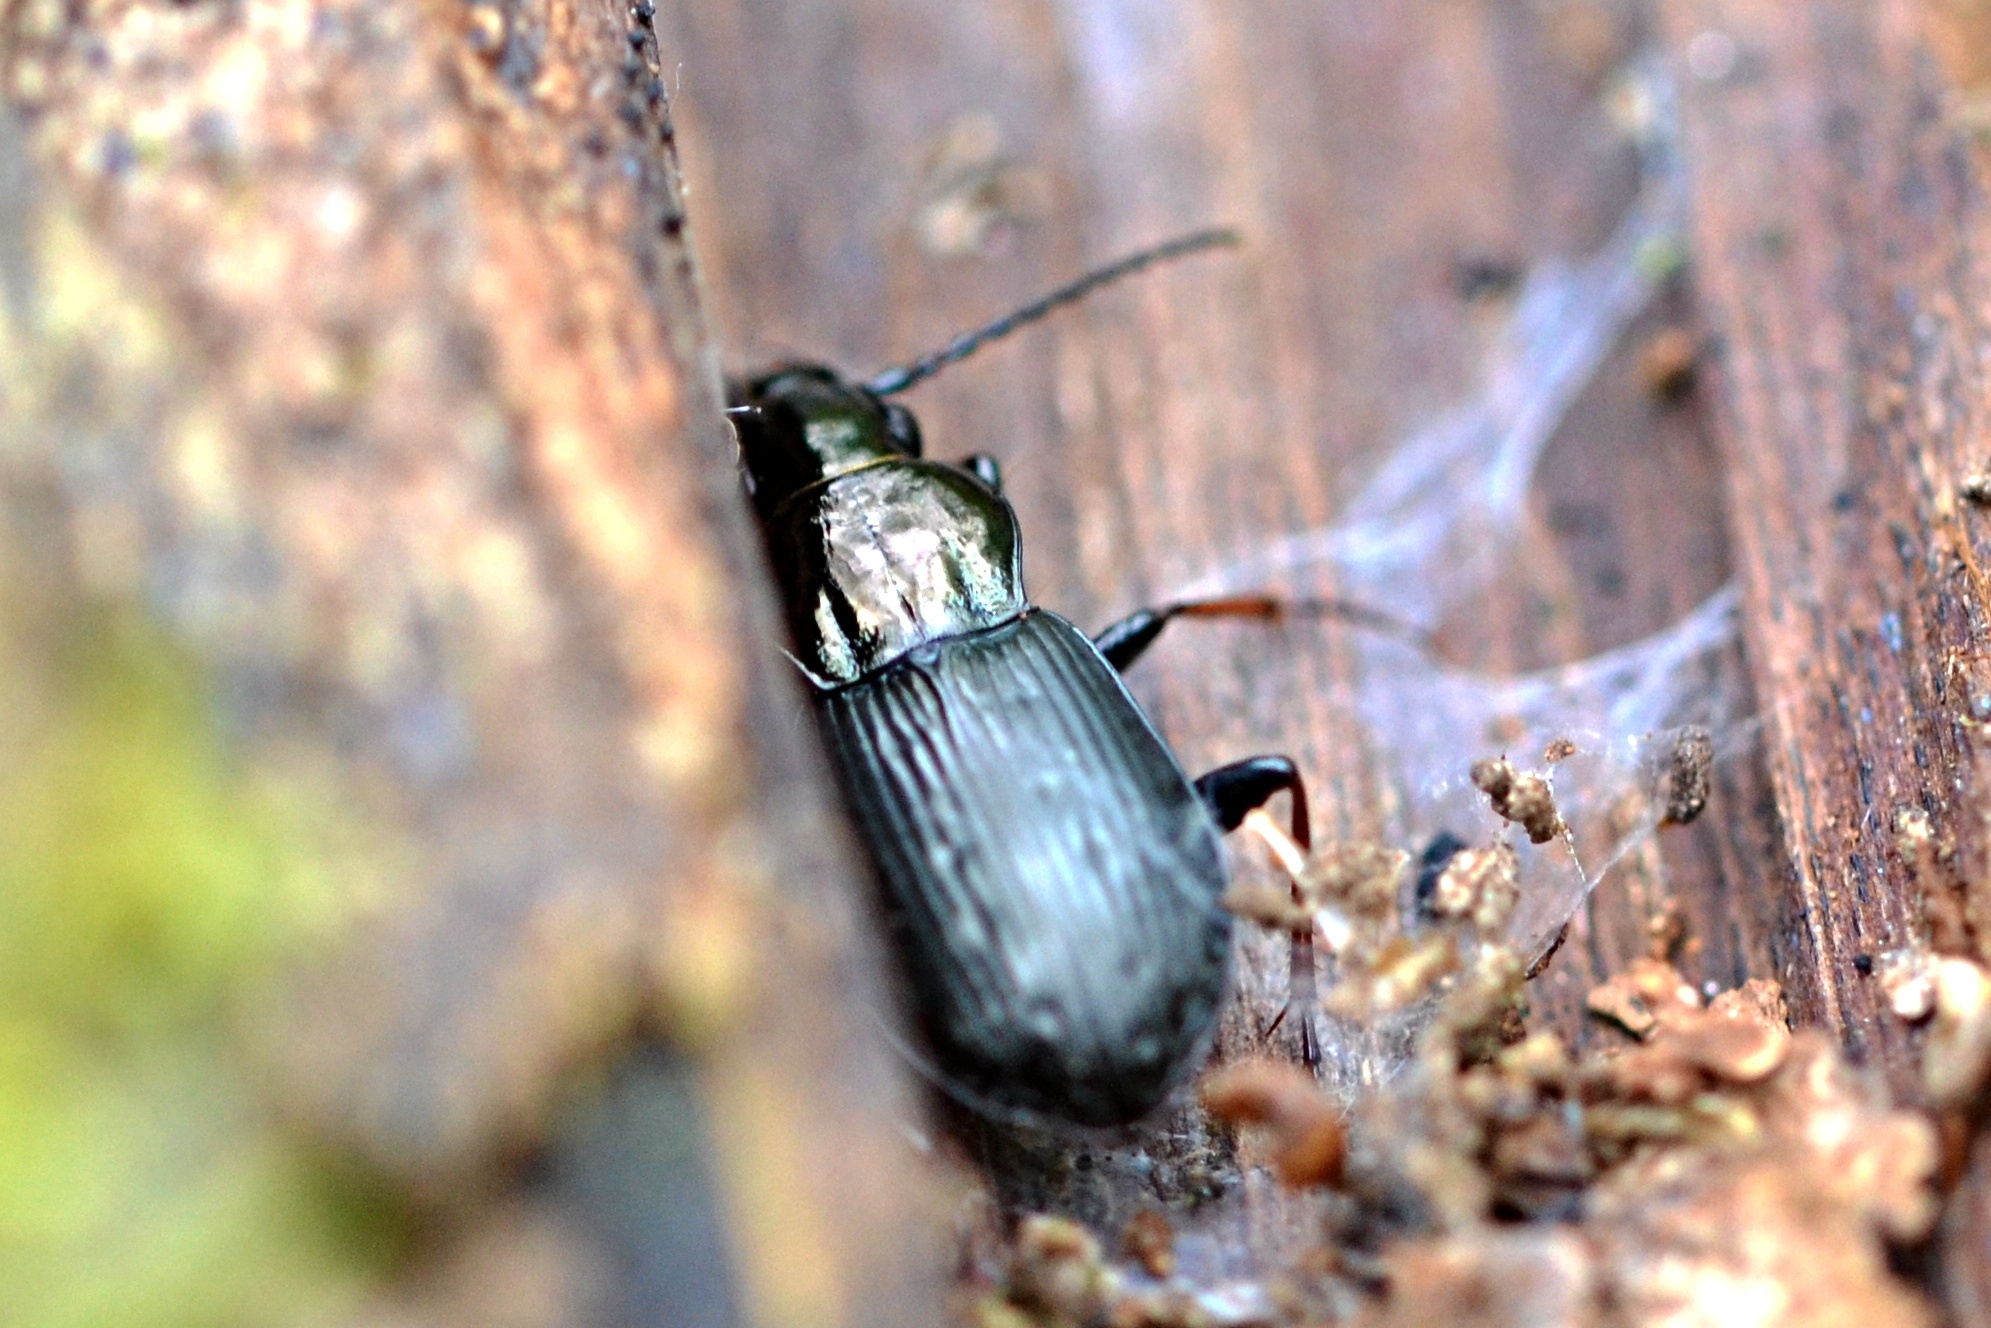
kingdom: Animalia
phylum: Arthropoda
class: Insecta
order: Coleoptera
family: Carabidae
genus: Pterostichus
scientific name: Pterostichus oblongopunctatus
